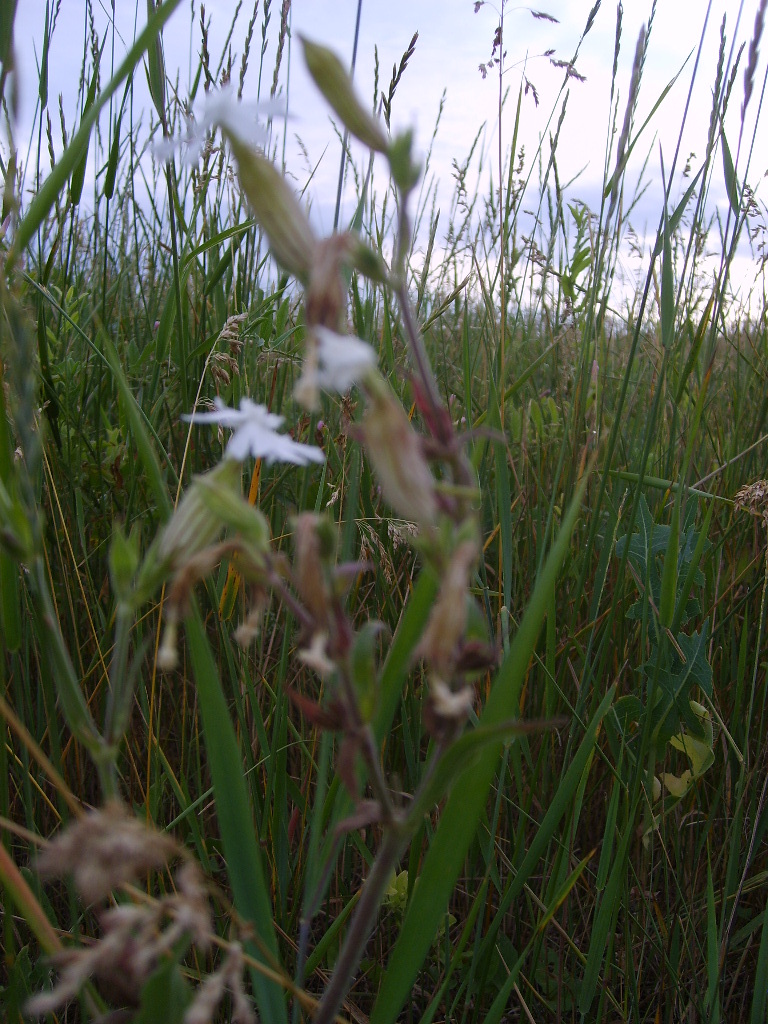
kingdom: Plantae
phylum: Tracheophyta
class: Magnoliopsida
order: Caryophyllales
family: Caryophyllaceae
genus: Silene
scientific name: Silene latifolia
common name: White campion
